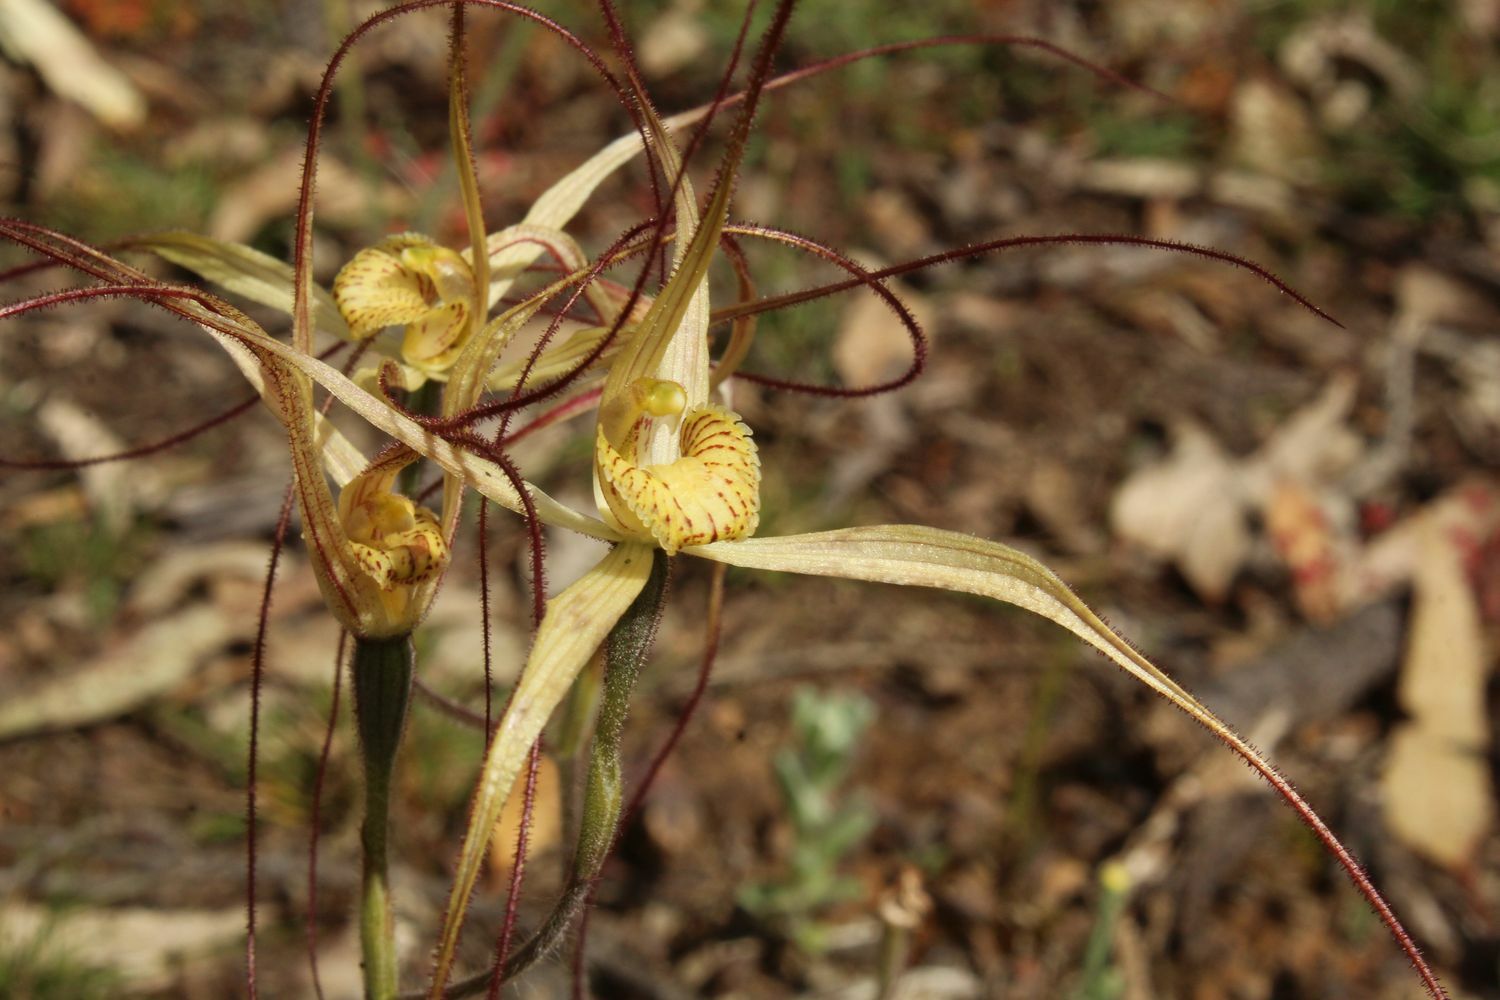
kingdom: Plantae
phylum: Tracheophyta
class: Liliopsida
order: Asparagales
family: Orchidaceae
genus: Caladenia
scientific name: Caladenia straminichila
